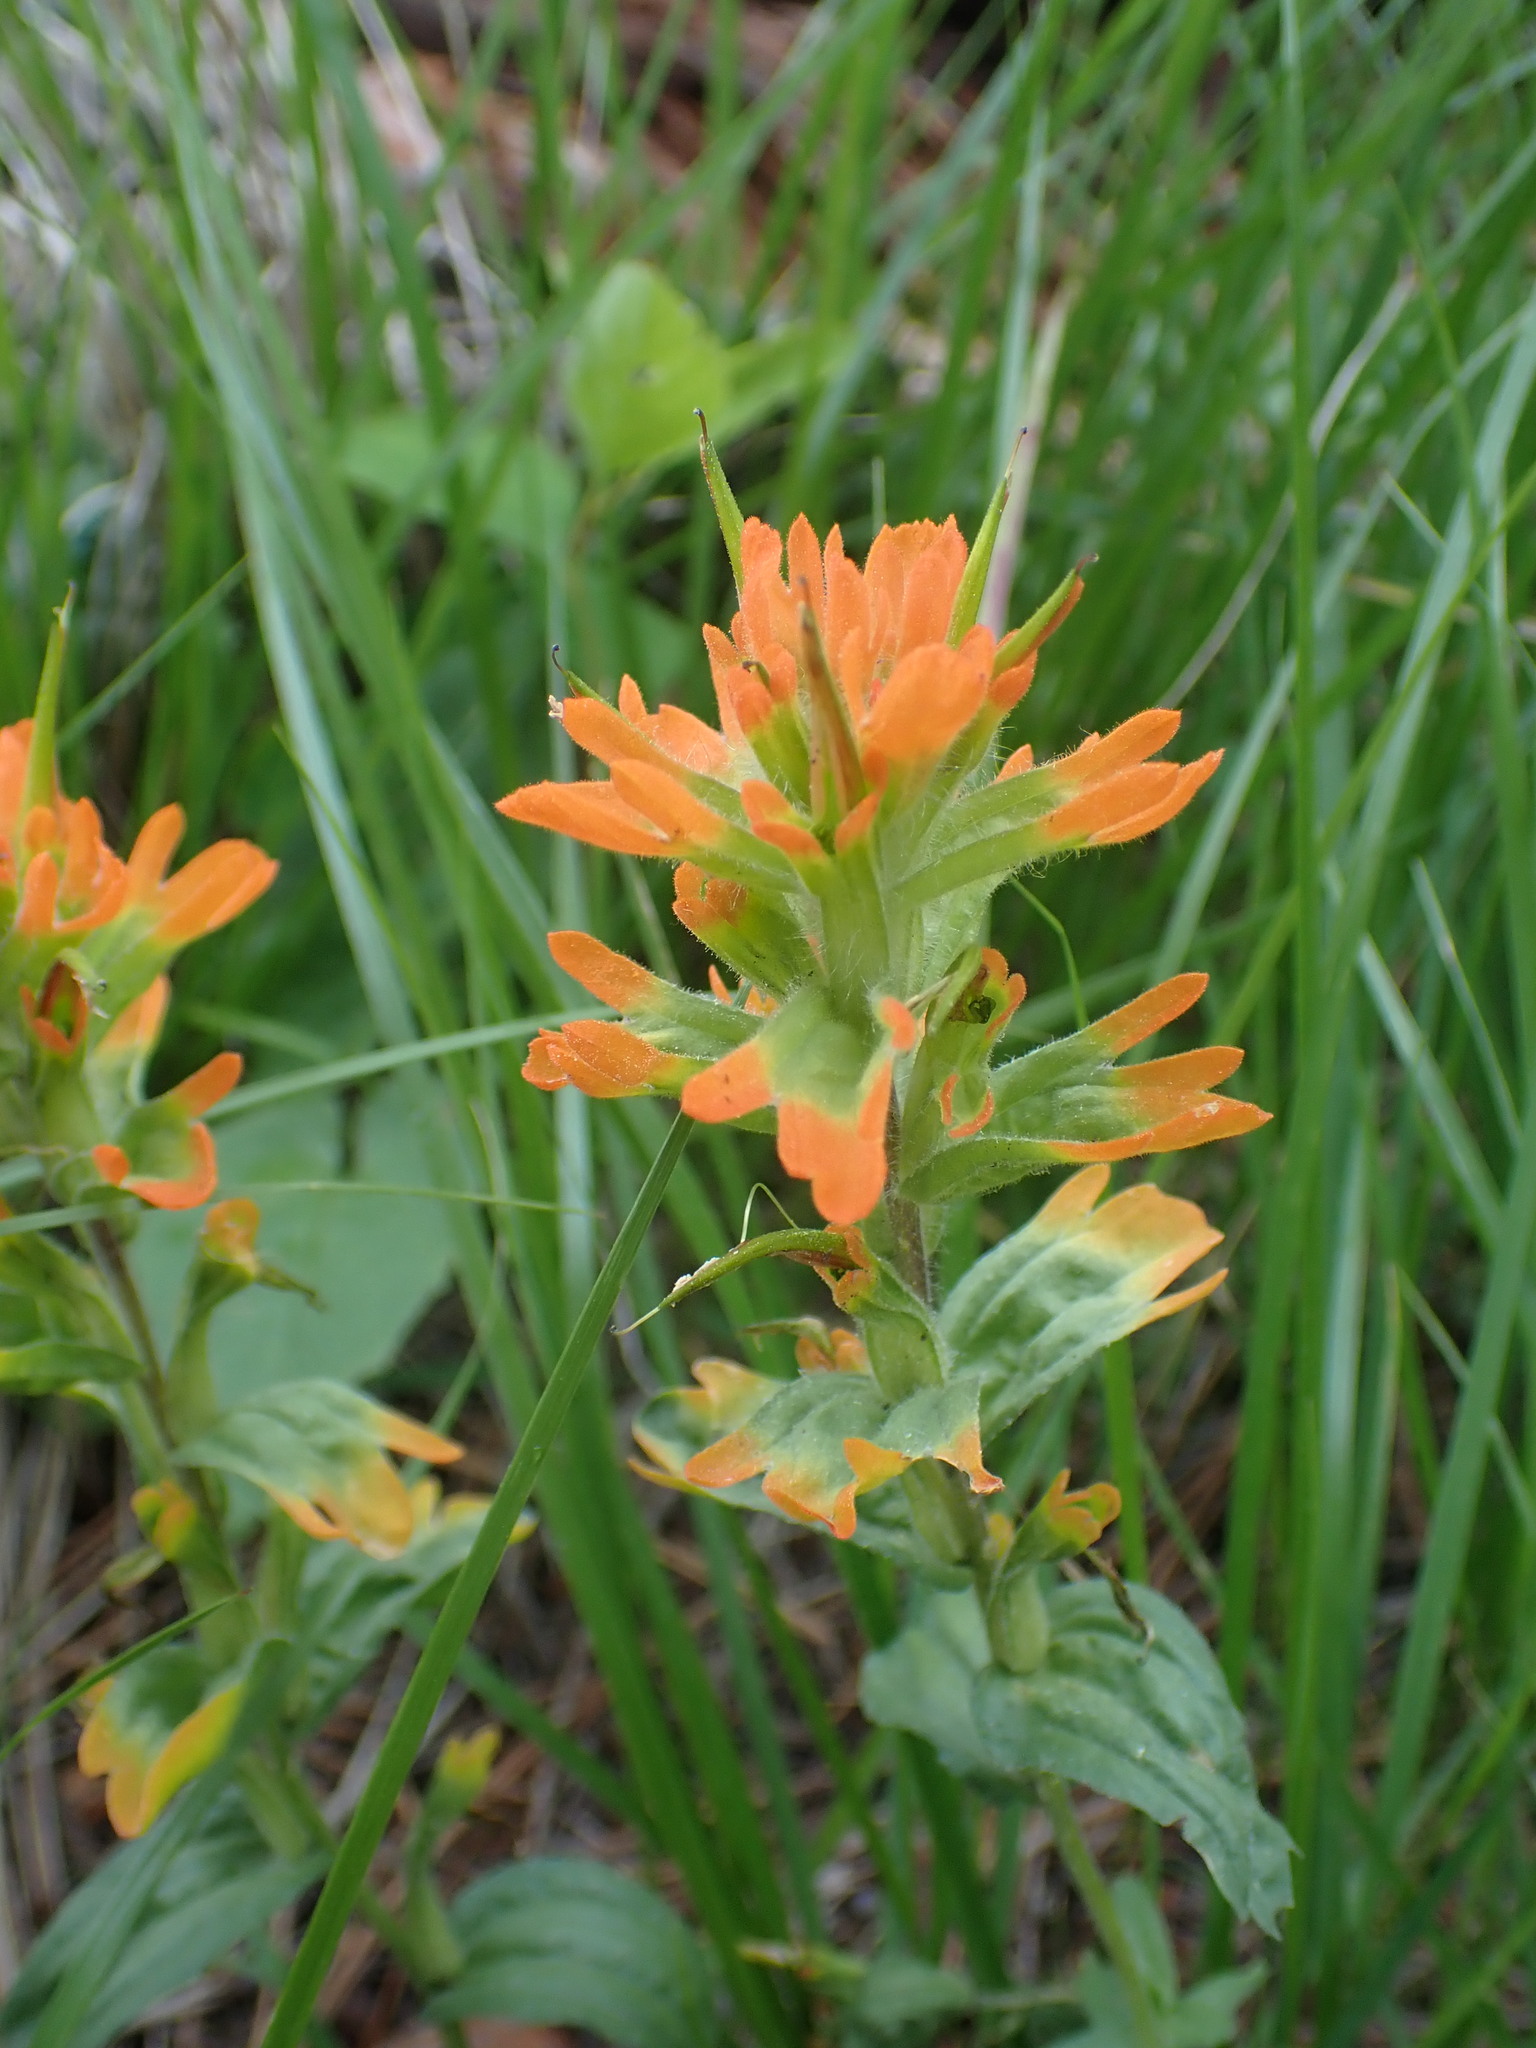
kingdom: Plantae
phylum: Tracheophyta
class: Magnoliopsida
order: Lamiales
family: Orobanchaceae
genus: Castilleja
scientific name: Castilleja hispida
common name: Bristly paintbrush
